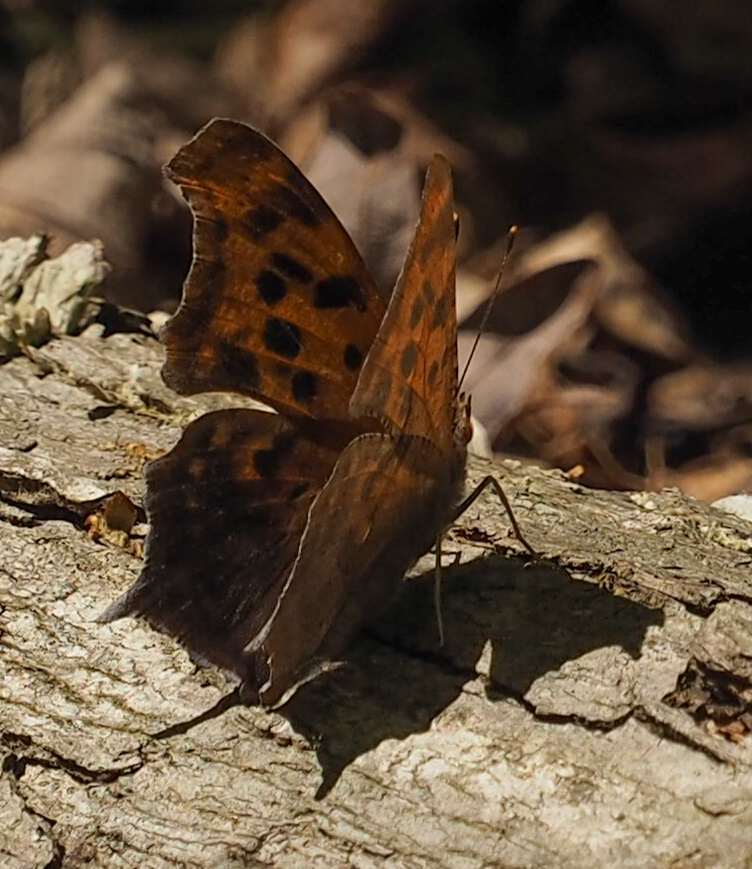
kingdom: Animalia
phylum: Arthropoda
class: Insecta
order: Lepidoptera
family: Nymphalidae
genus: Polygonia
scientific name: Polygonia interrogationis
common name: Question mark
